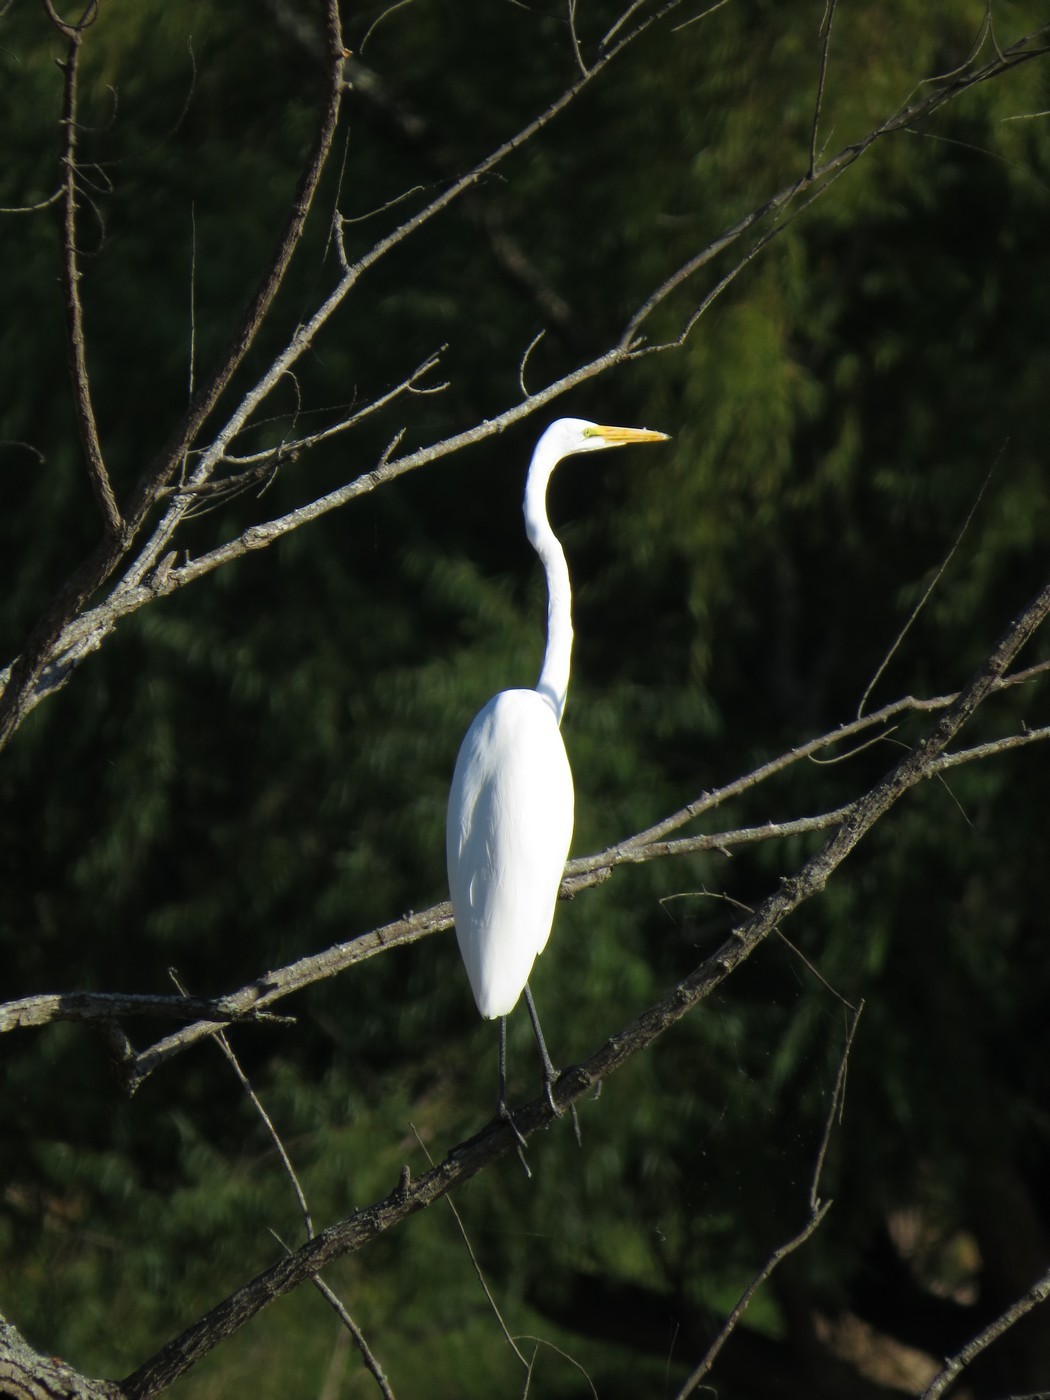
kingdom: Animalia
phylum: Chordata
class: Aves
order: Pelecaniformes
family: Ardeidae
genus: Ardea
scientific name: Ardea alba
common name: Great egret
